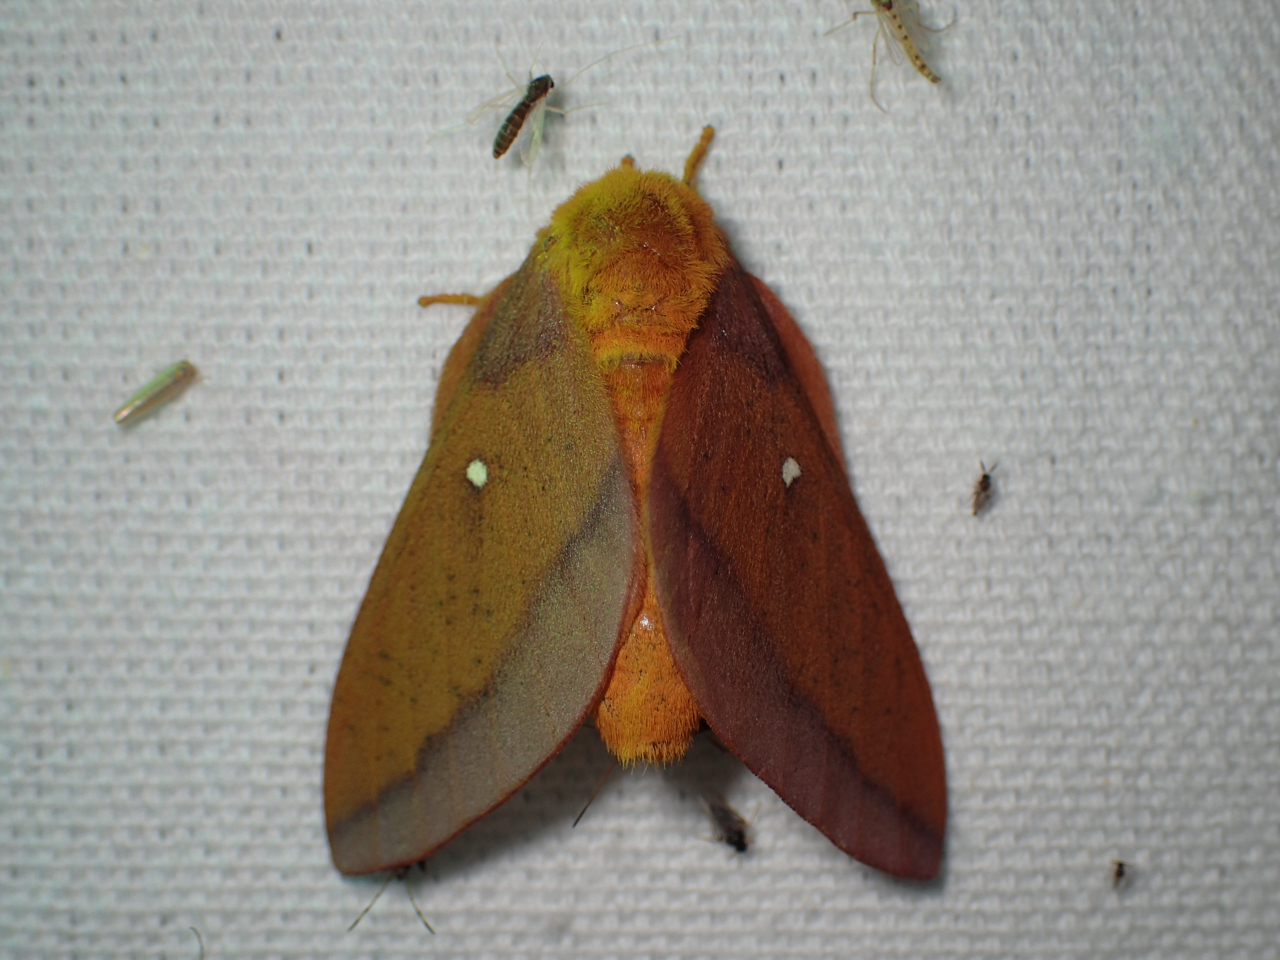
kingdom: Animalia
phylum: Arthropoda
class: Insecta
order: Lepidoptera
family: Saturniidae
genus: Anisota
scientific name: Anisota virginiensis
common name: Pink striped oakworm moth
